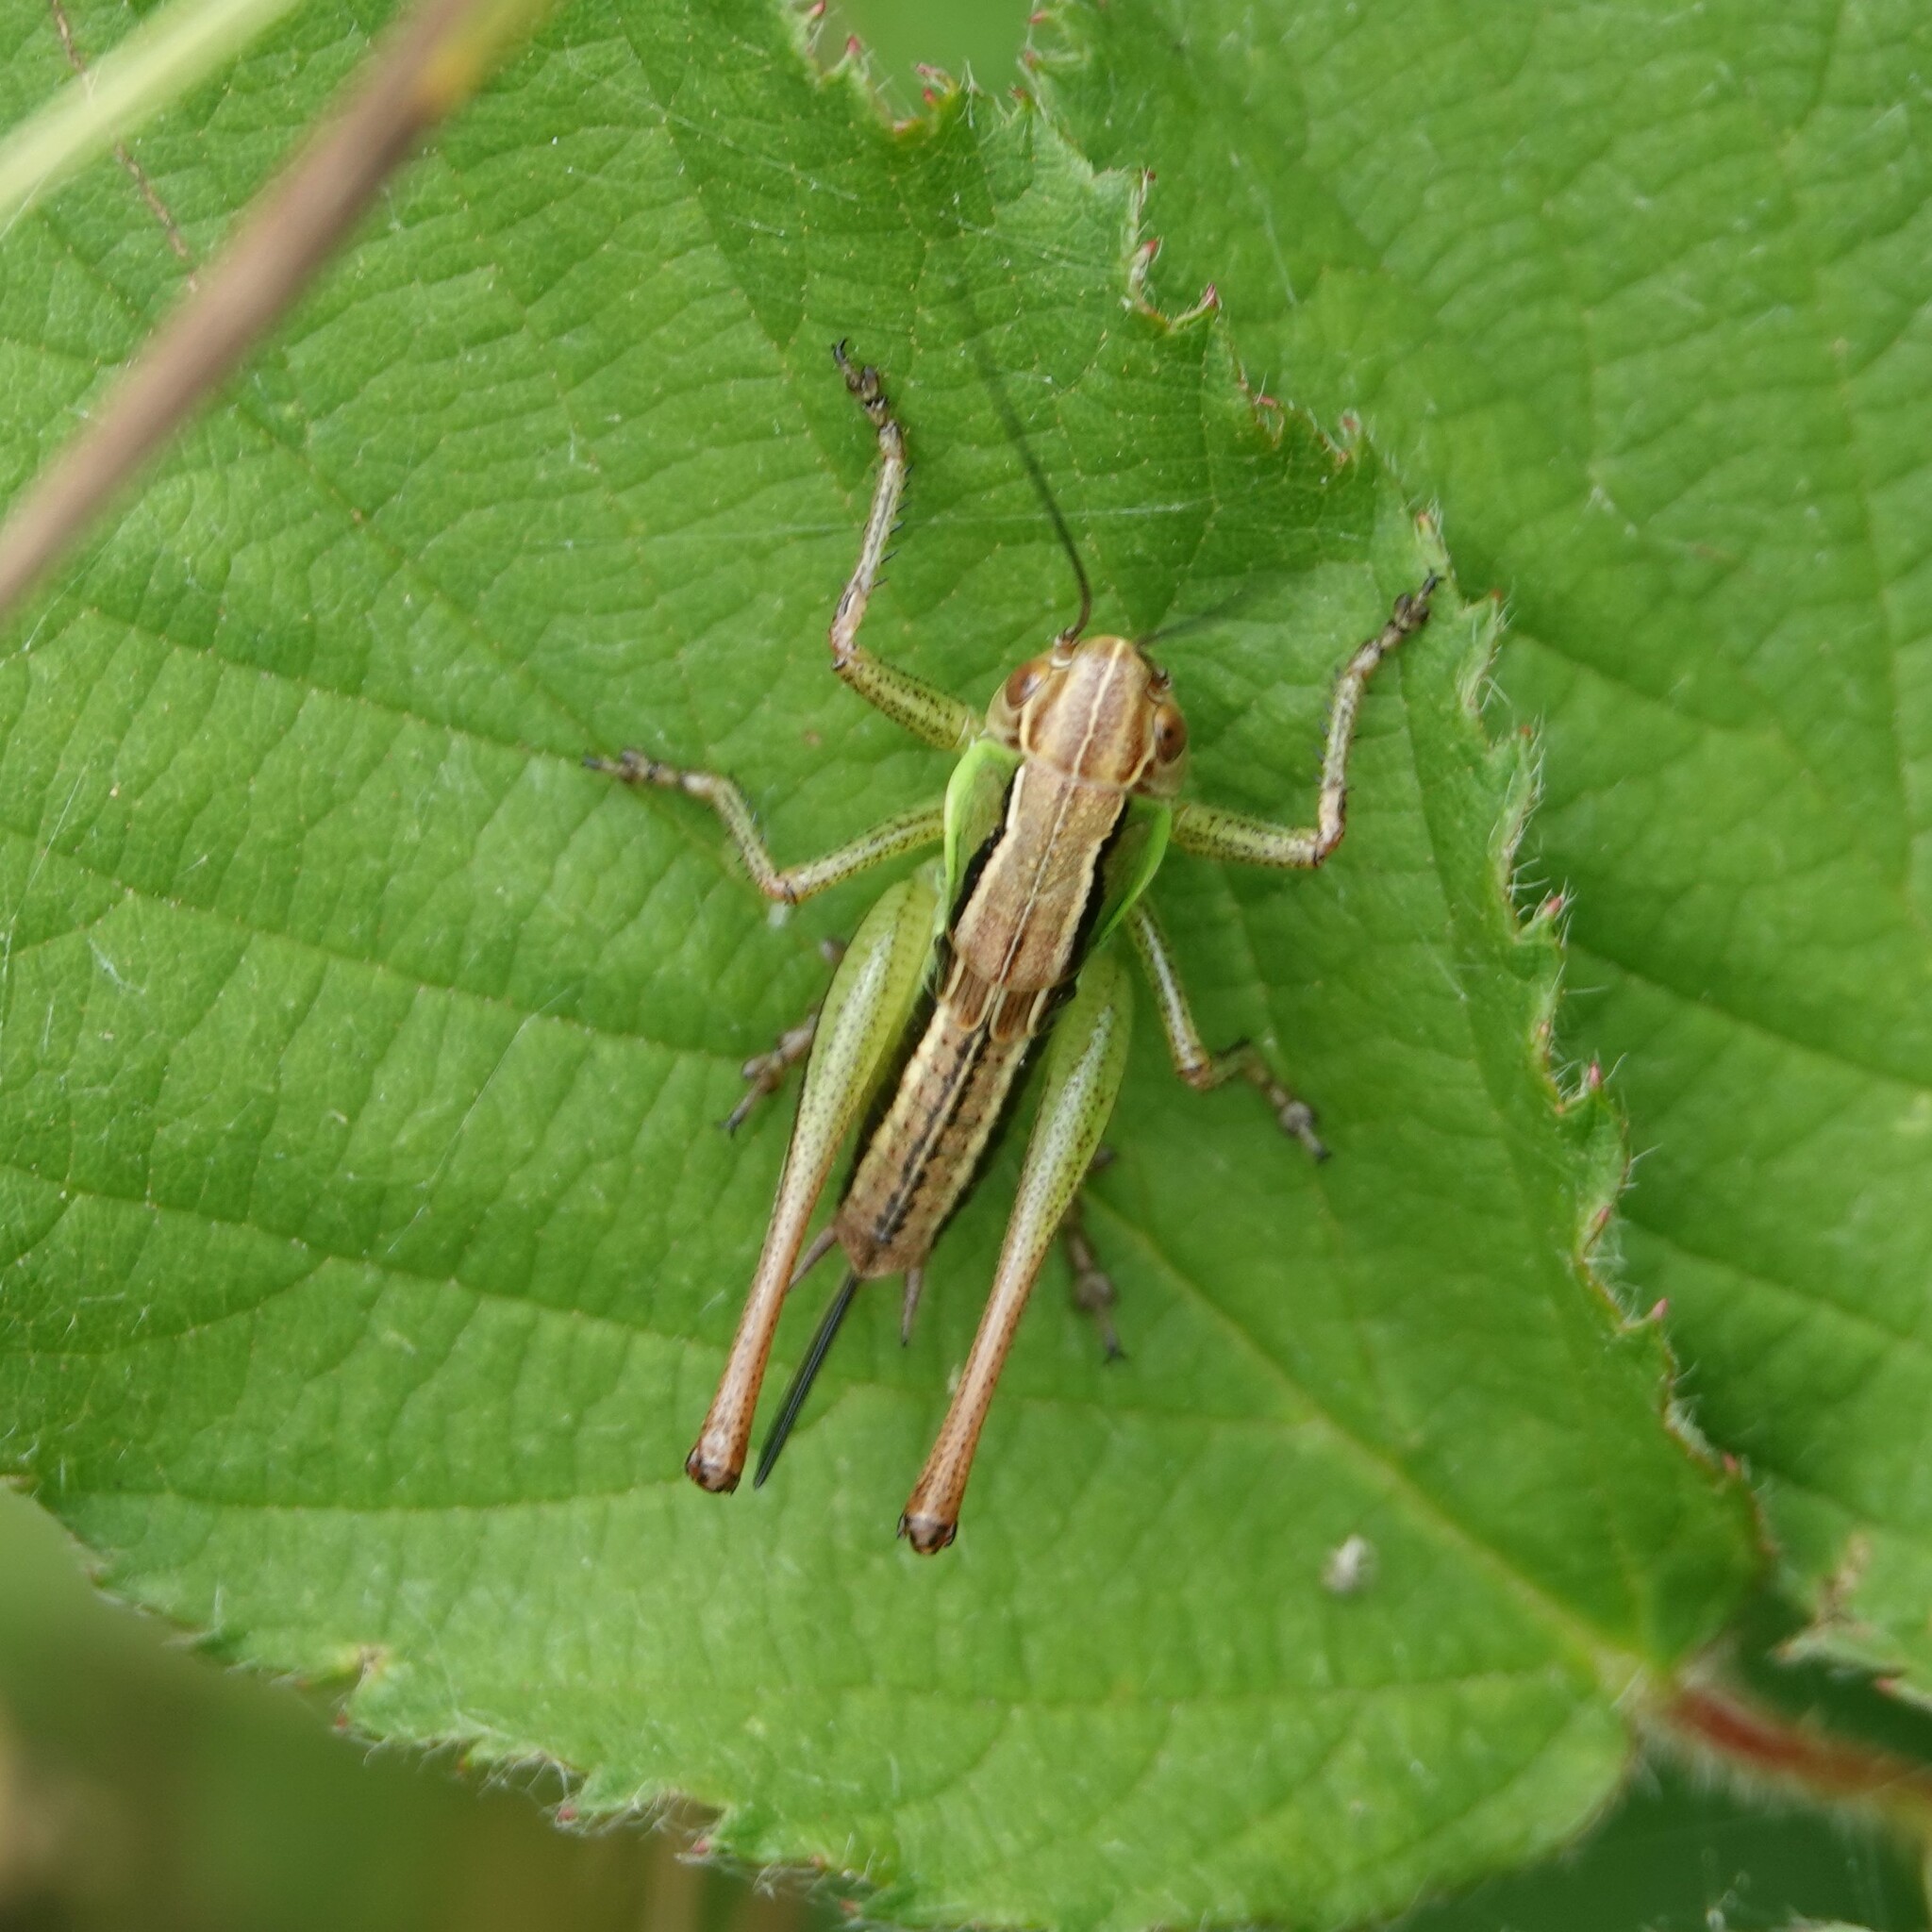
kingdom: Animalia
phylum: Arthropoda
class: Insecta
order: Orthoptera
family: Tettigoniidae
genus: Roeseliana
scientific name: Roeseliana roeselii
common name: Roesel's bush cricket
